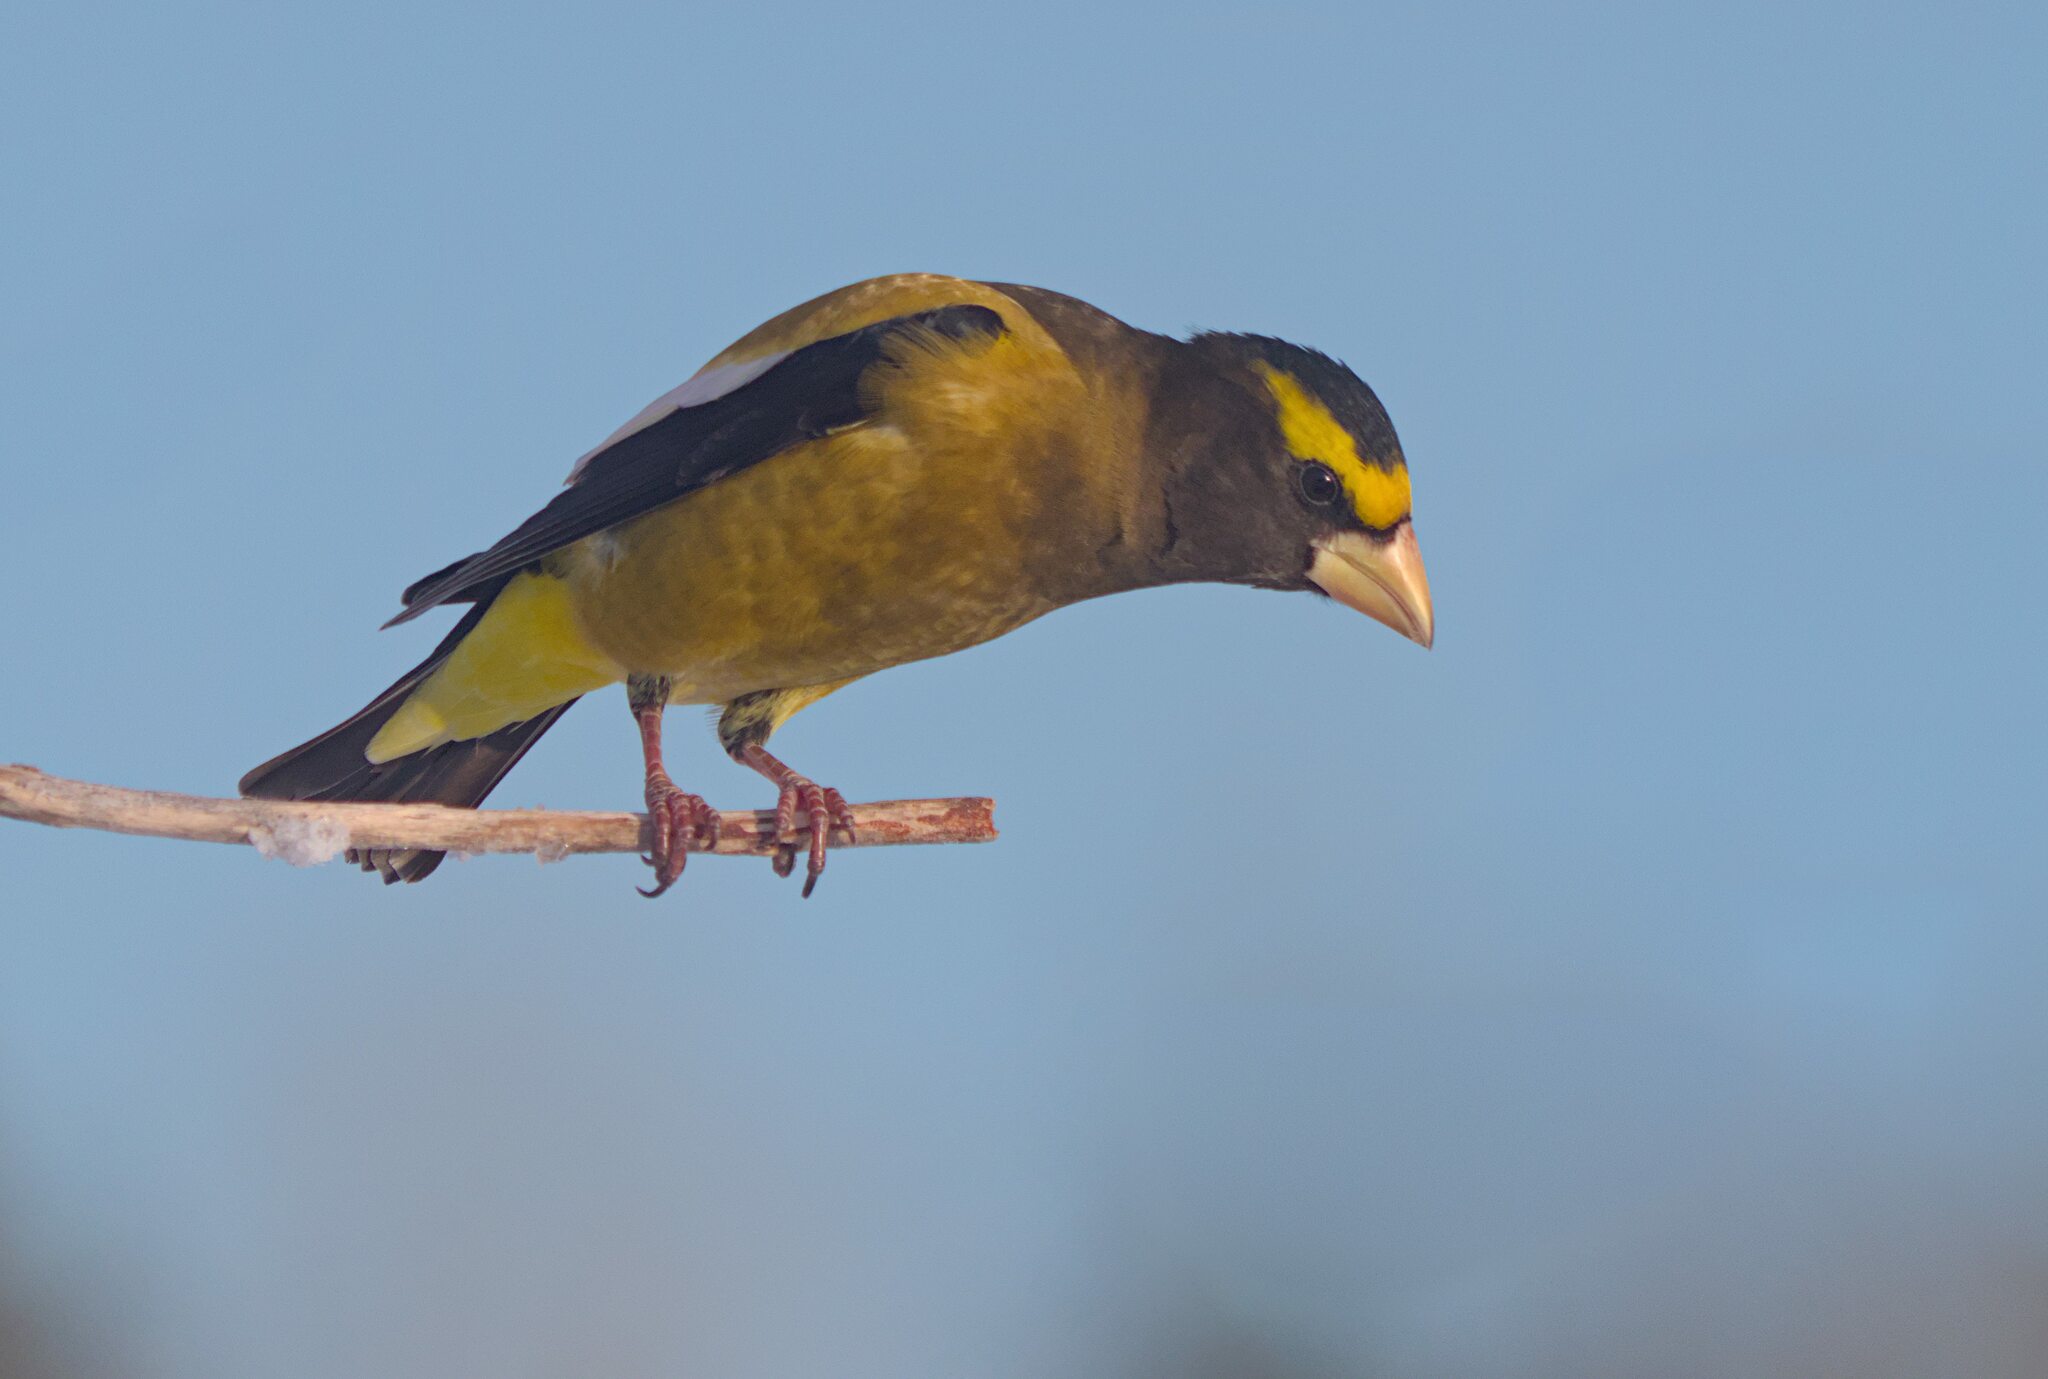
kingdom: Animalia
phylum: Chordata
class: Aves
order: Passeriformes
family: Fringillidae
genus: Hesperiphona
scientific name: Hesperiphona vespertina
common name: Evening grosbeak
